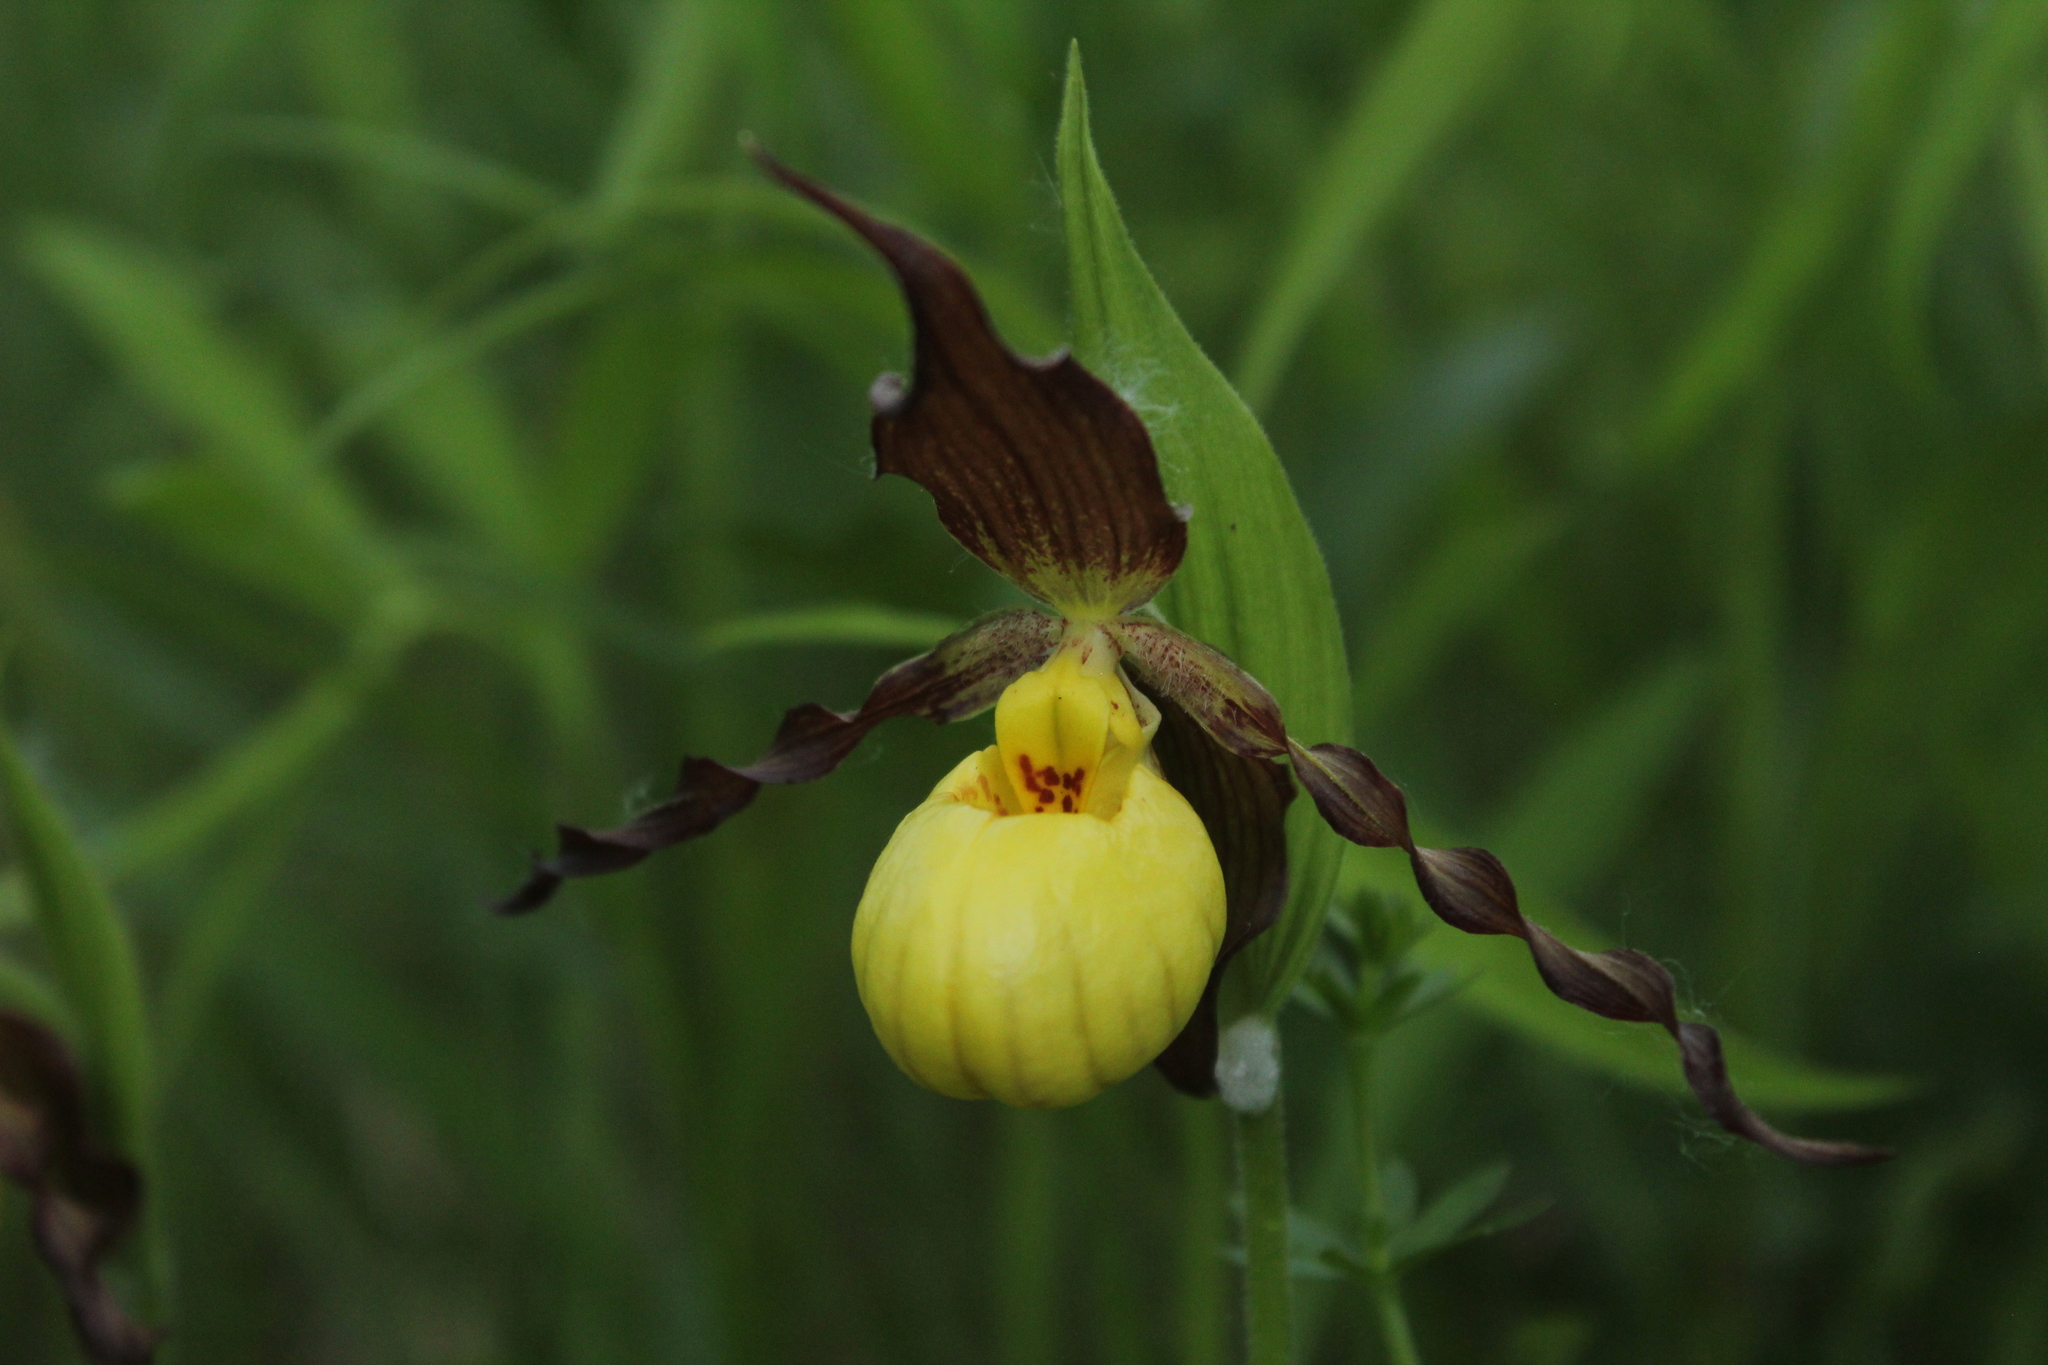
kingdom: Plantae
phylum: Tracheophyta
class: Liliopsida
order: Asparagales
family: Orchidaceae
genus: Cypripedium
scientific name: Cypripedium parviflorum
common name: American yellow lady's-slipper
